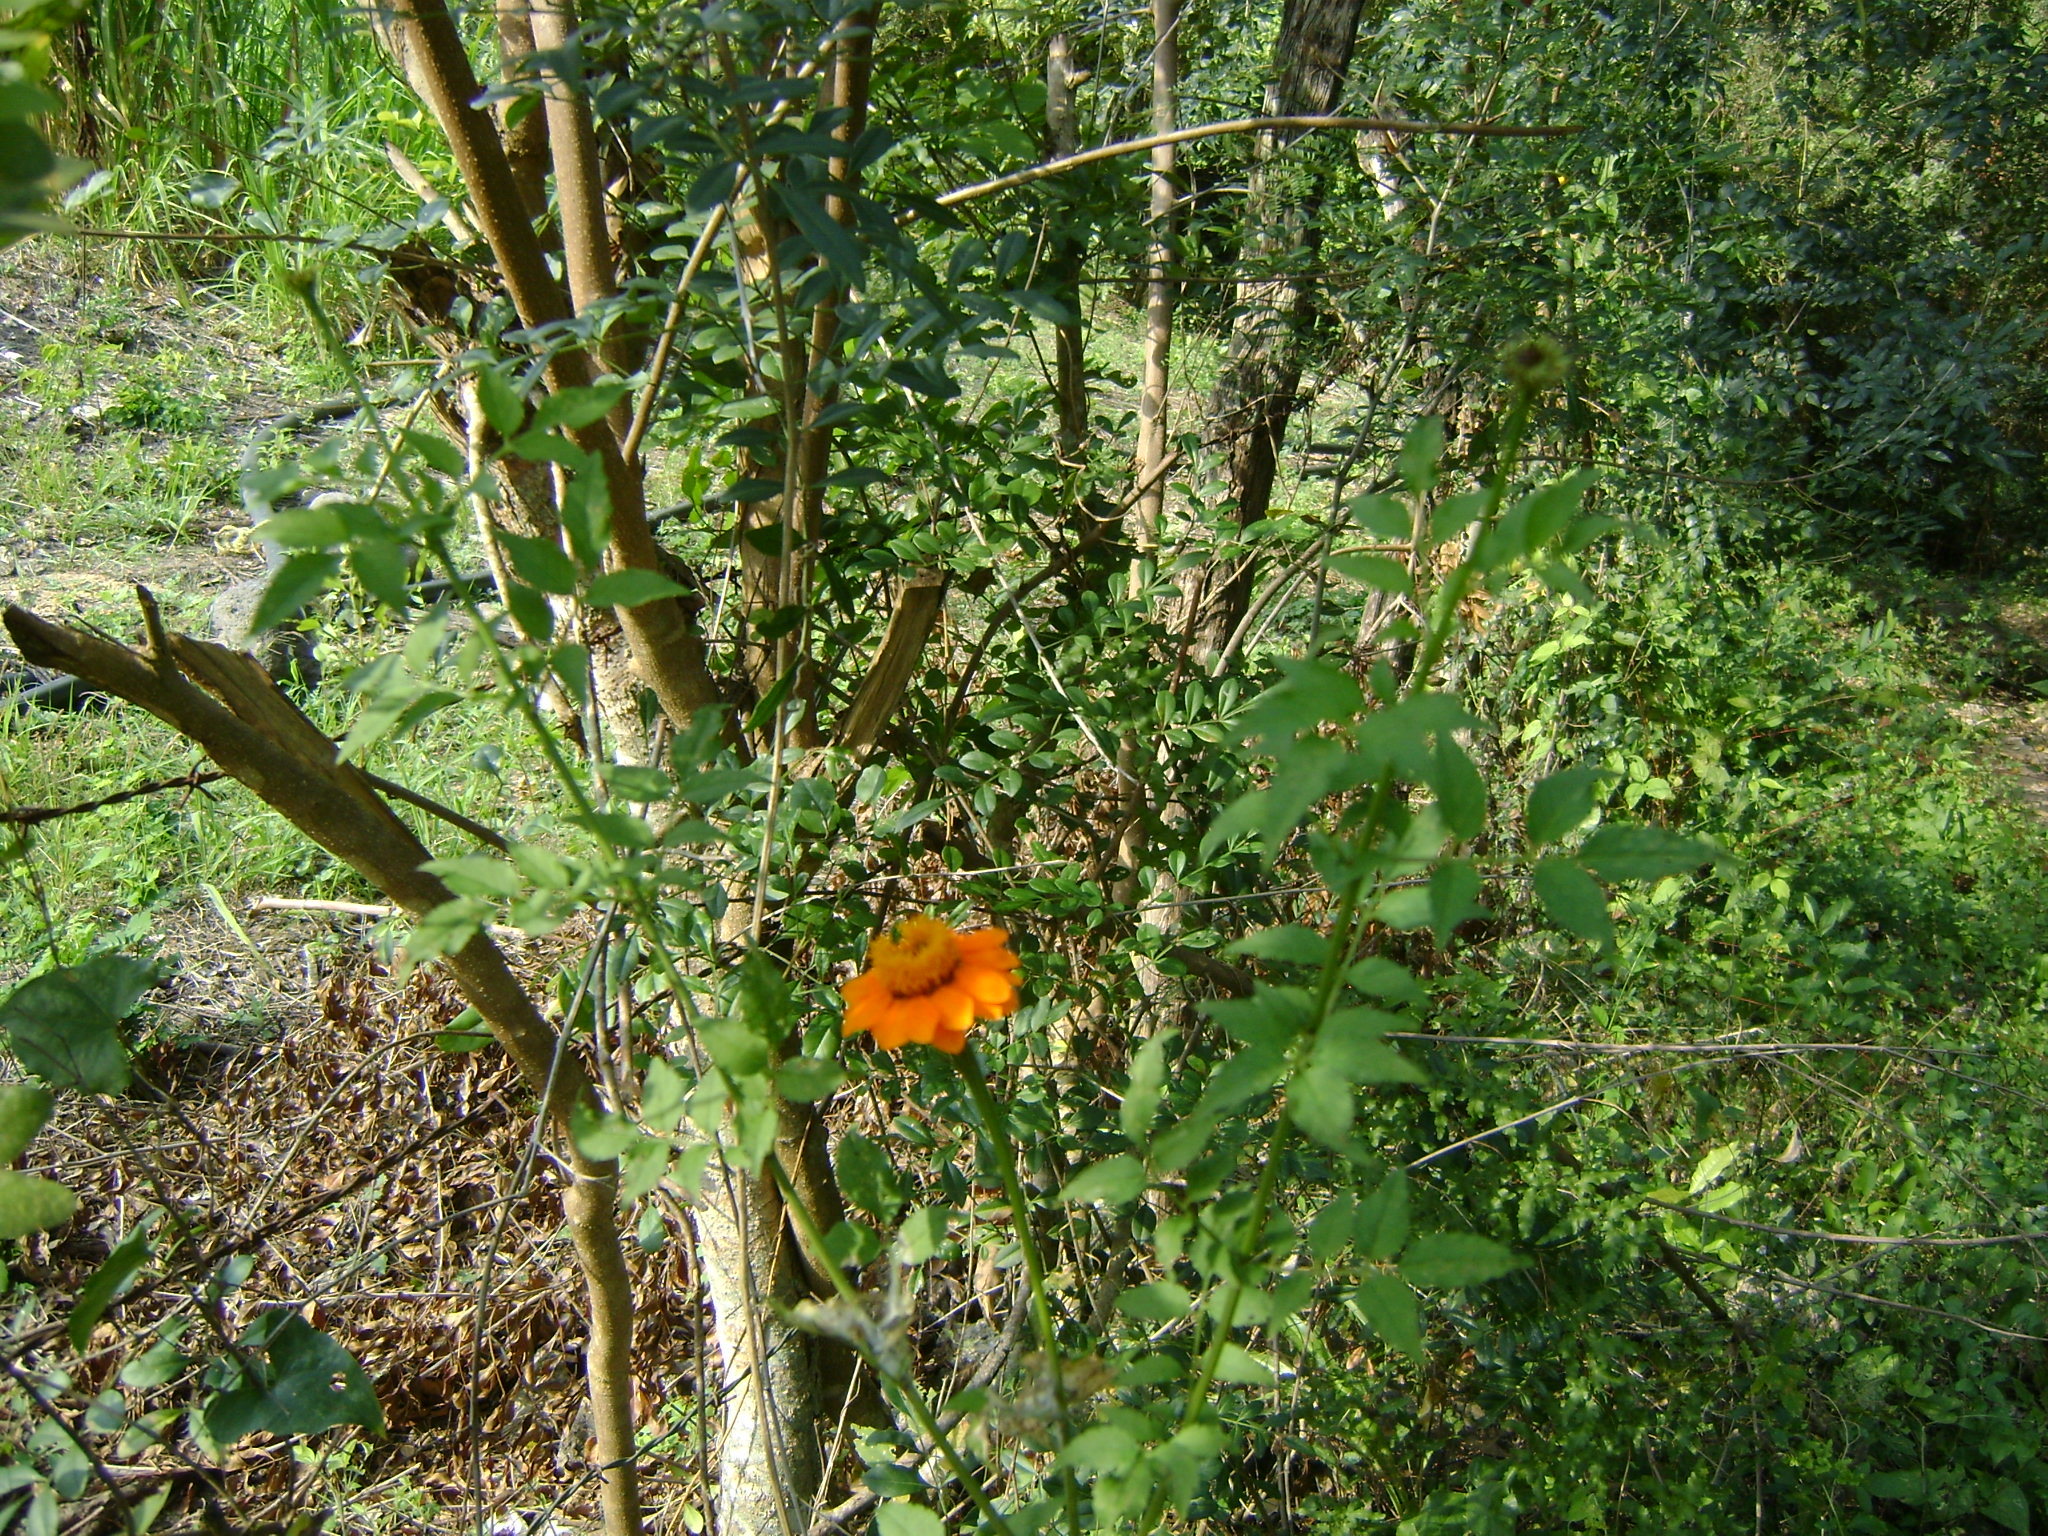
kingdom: Plantae
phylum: Tracheophyta
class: Magnoliopsida
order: Asterales
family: Asteraceae
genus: Adenophyllum
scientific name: Adenophyllum aurantium
